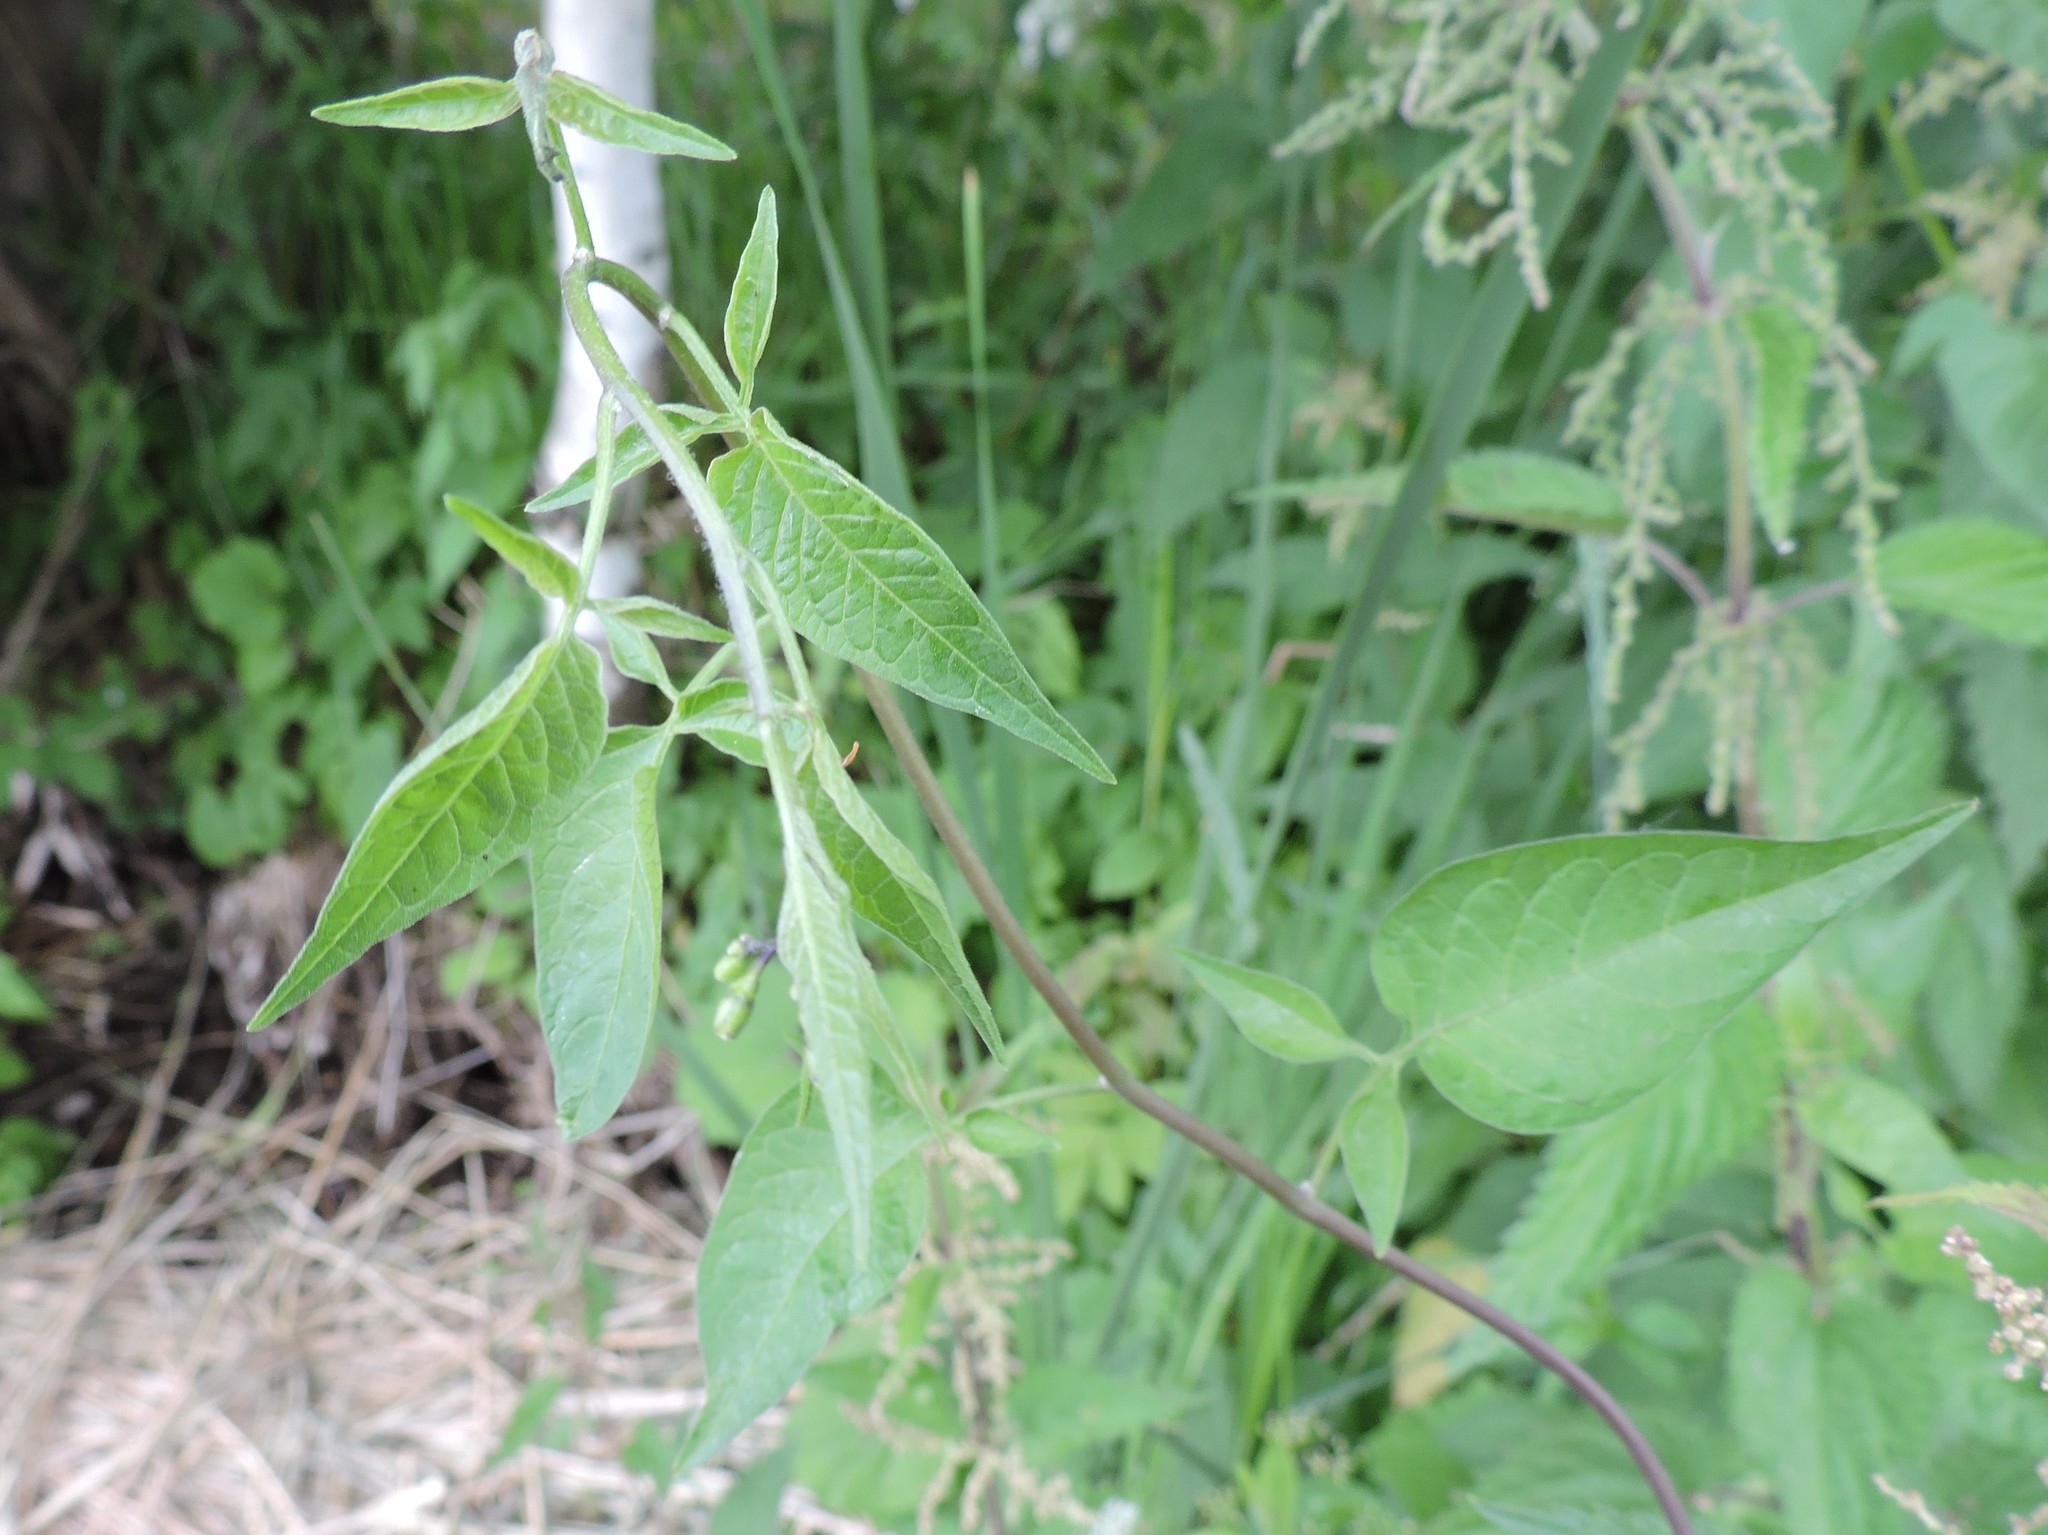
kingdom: Plantae
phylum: Tracheophyta
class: Magnoliopsida
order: Solanales
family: Solanaceae
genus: Solanum
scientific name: Solanum dulcamara
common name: Climbing nightshade
